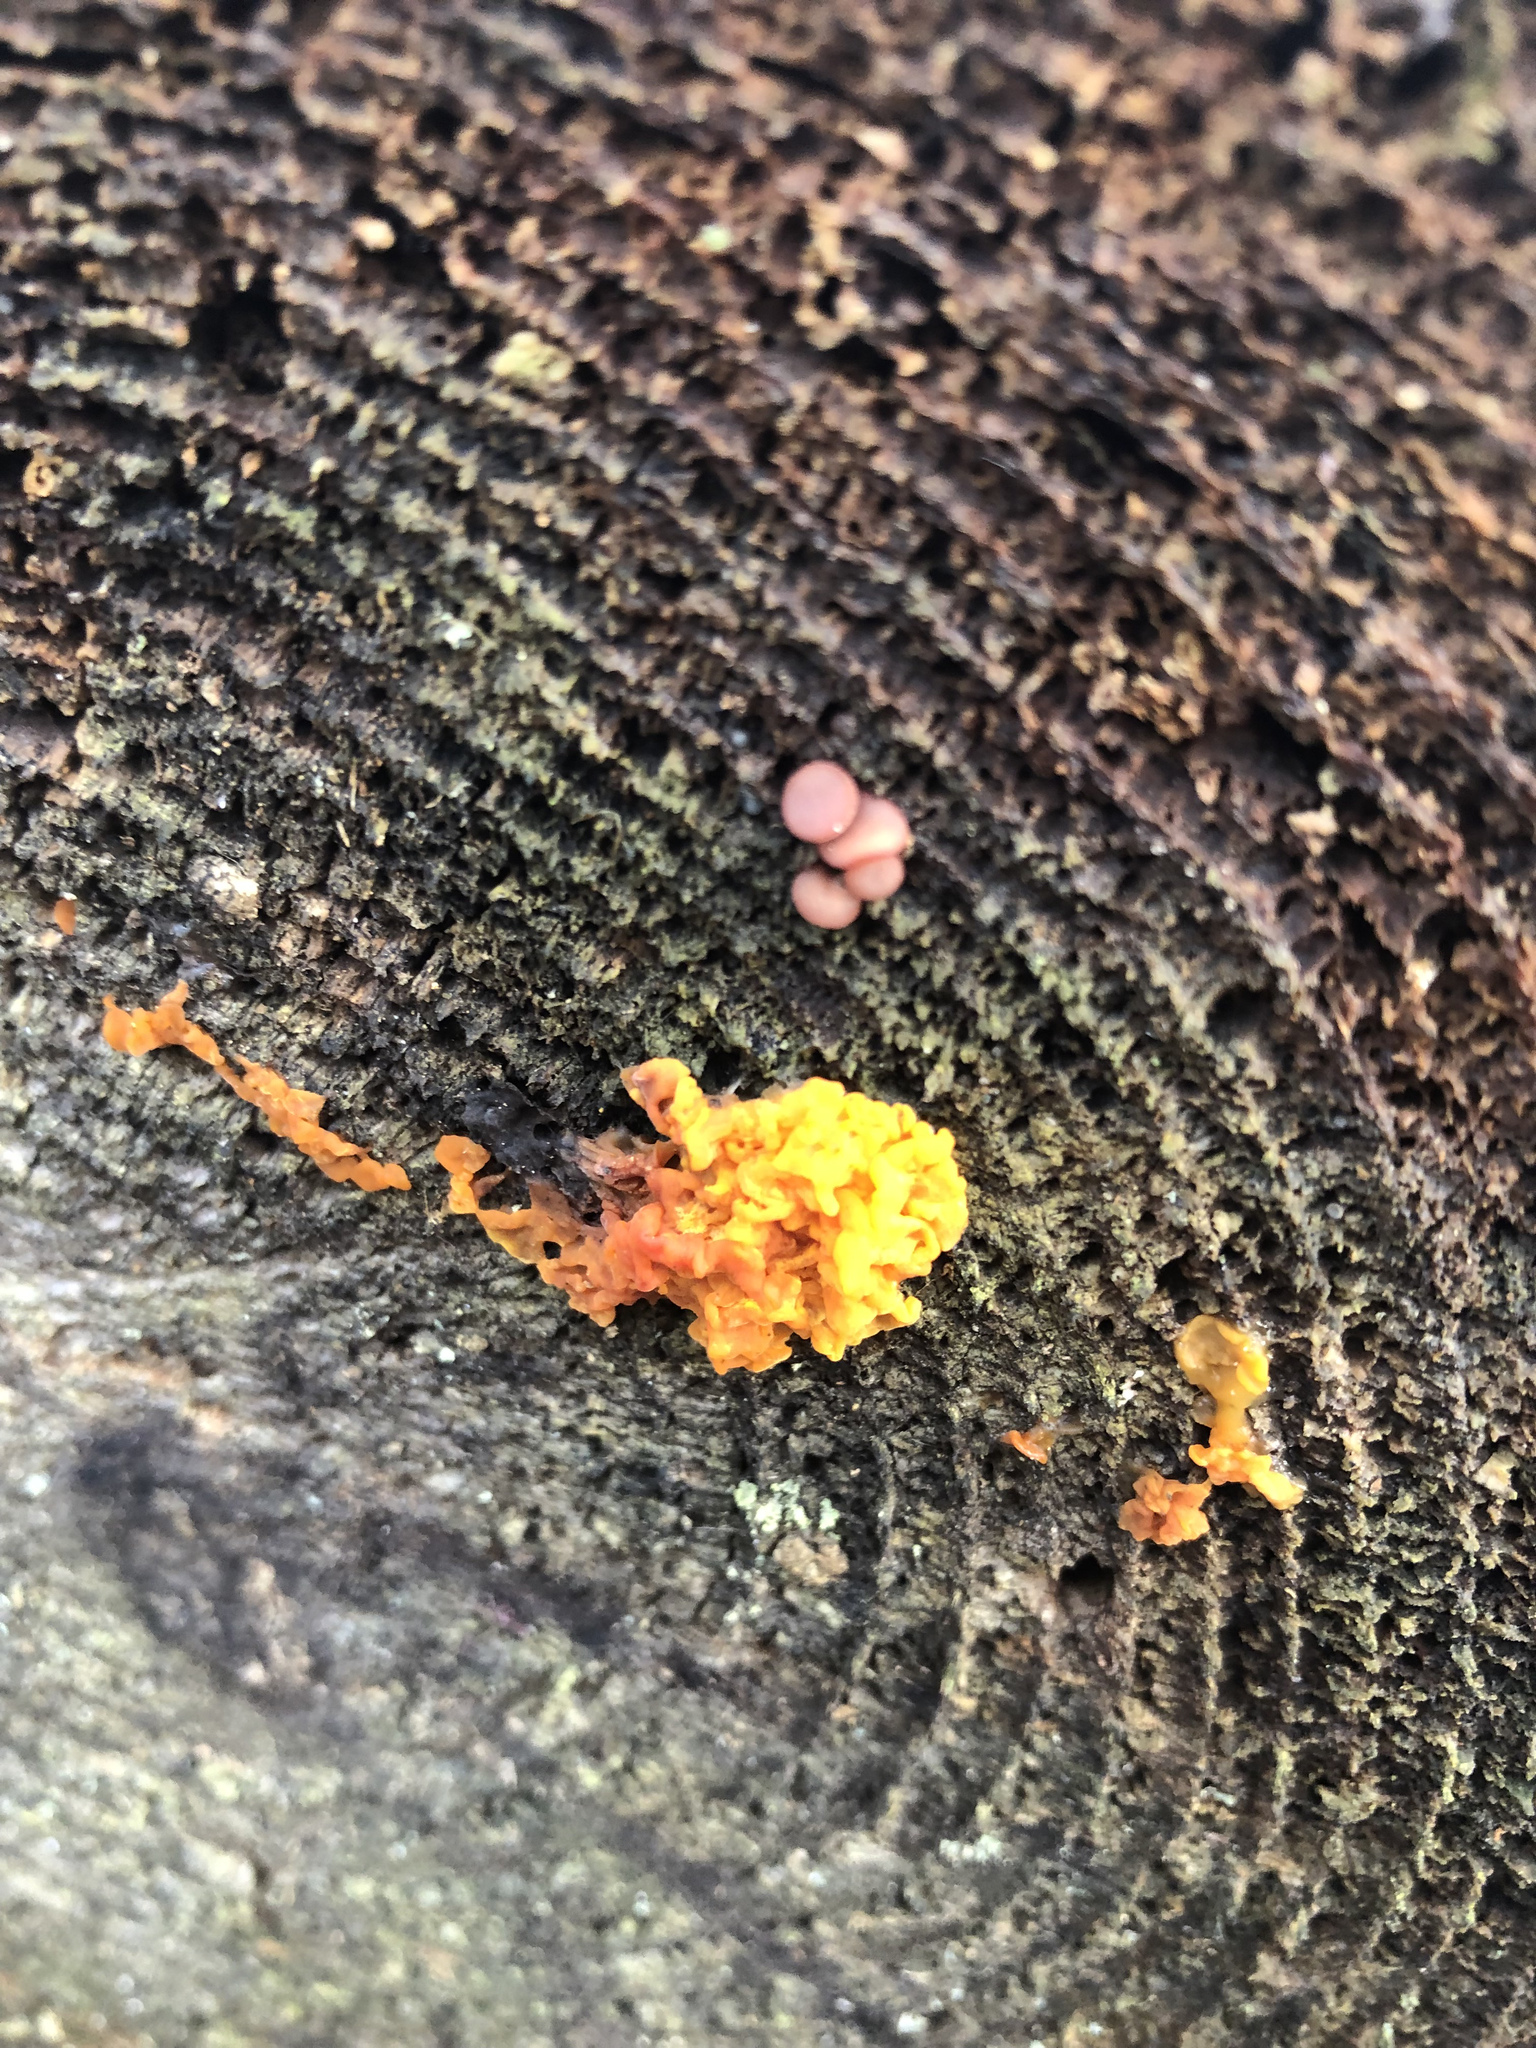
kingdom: Fungi
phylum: Basidiomycota
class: Dacrymycetes
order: Dacrymycetales
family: Dacrymycetaceae
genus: Dacrymyces
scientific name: Dacrymyces chrysospermus
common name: Orange jelly spot
